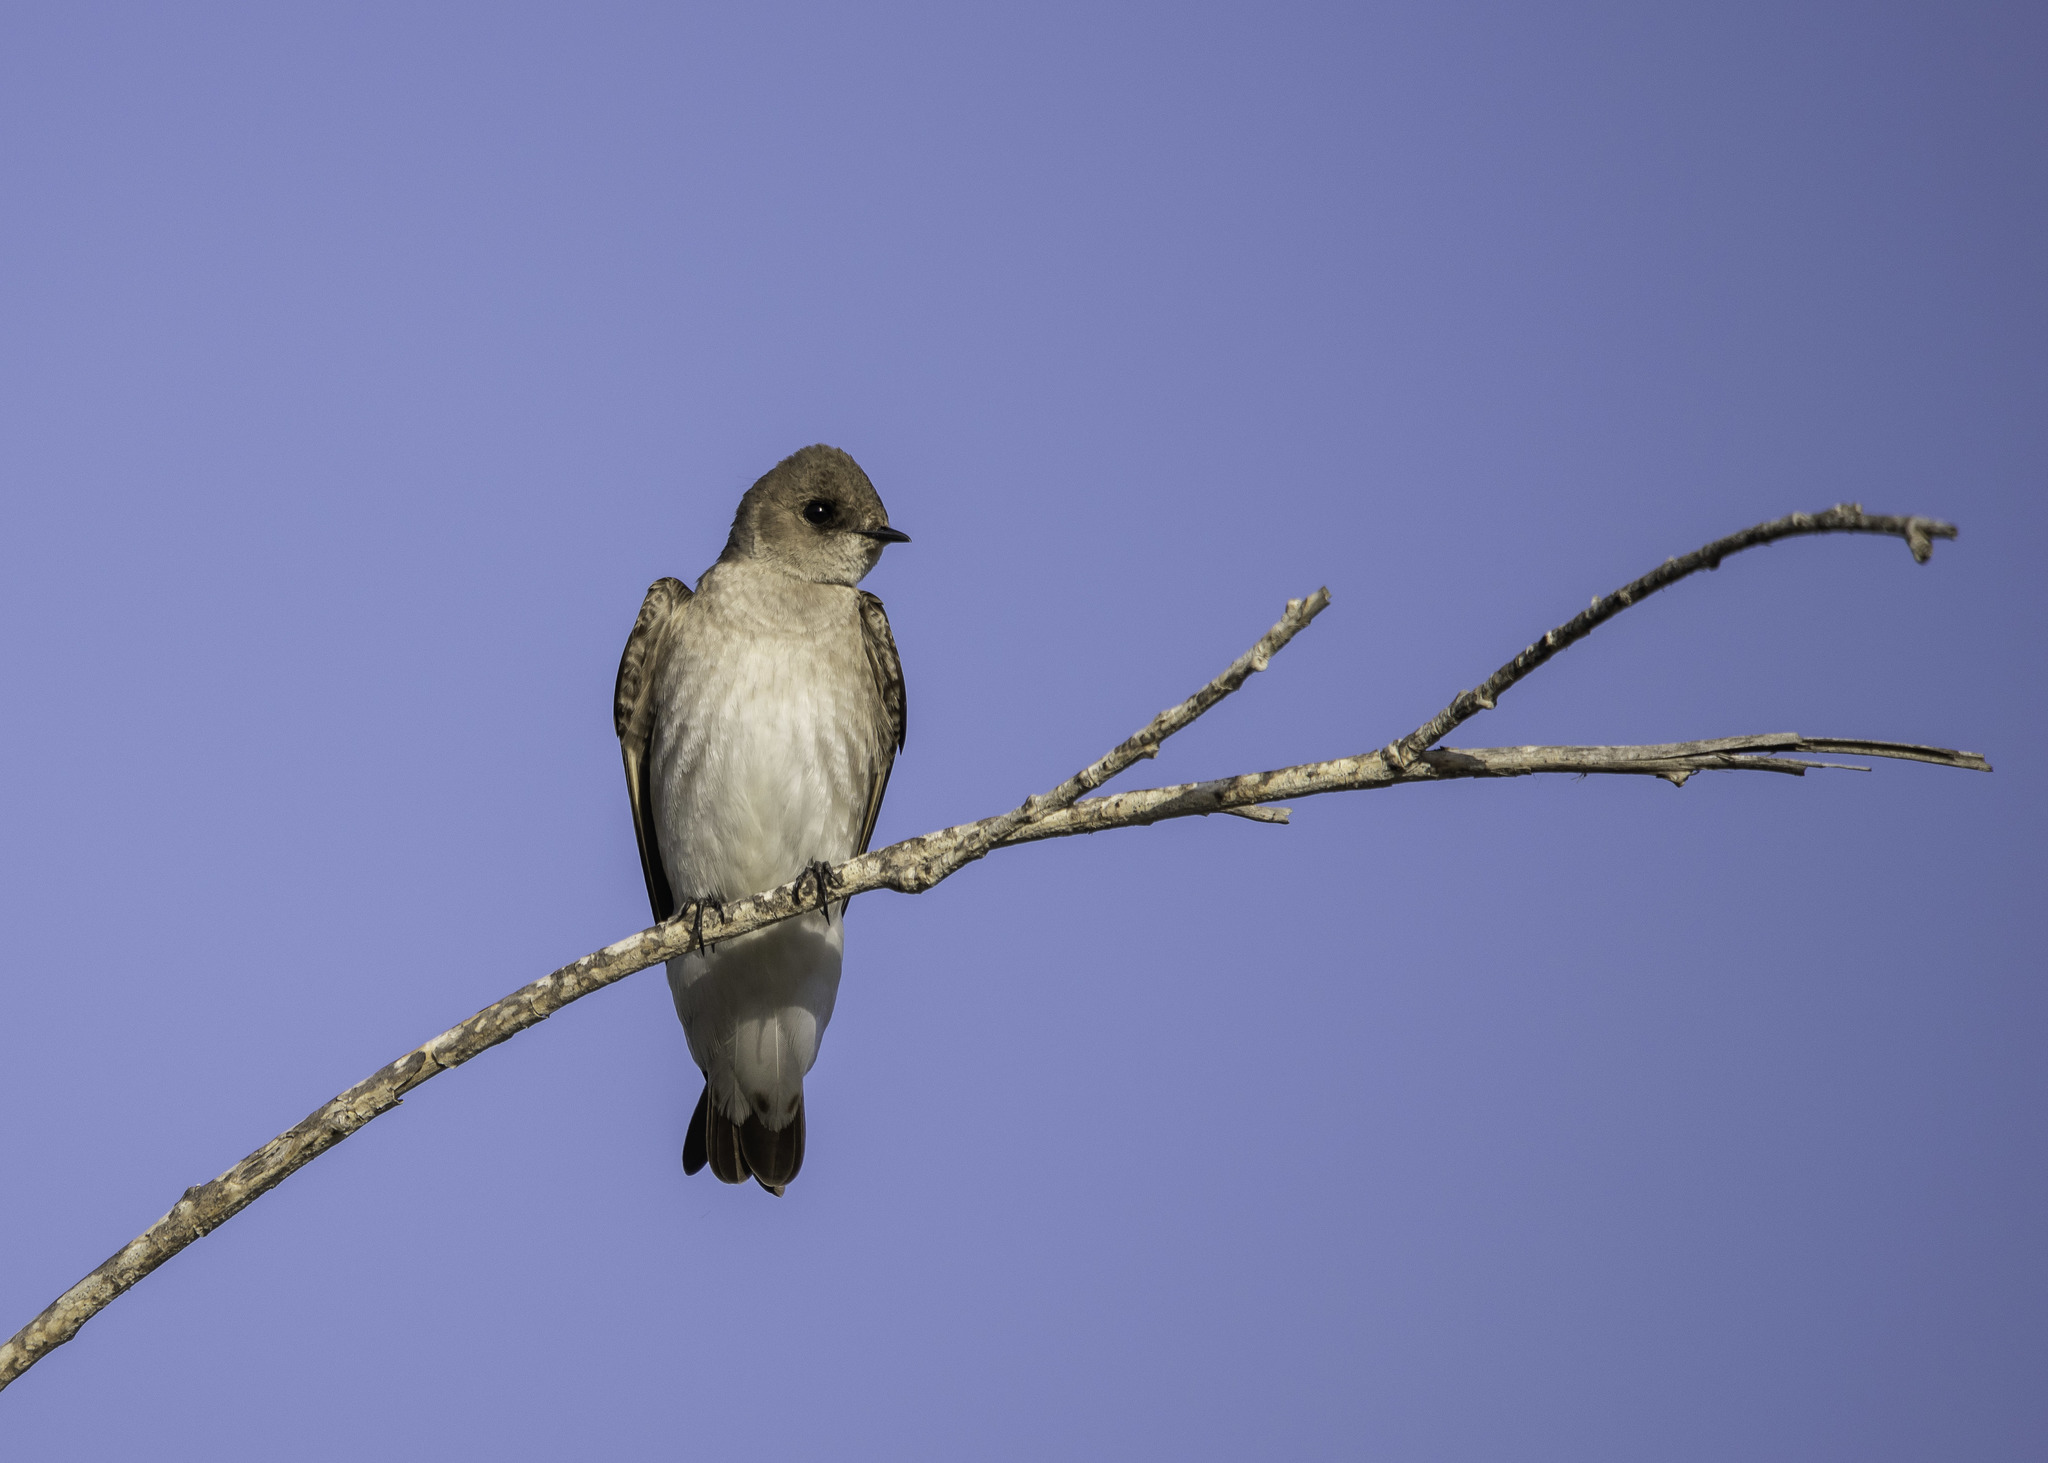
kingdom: Animalia
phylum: Chordata
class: Aves
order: Passeriformes
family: Hirundinidae
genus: Stelgidopteryx
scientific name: Stelgidopteryx serripennis
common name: Northern rough-winged swallow
